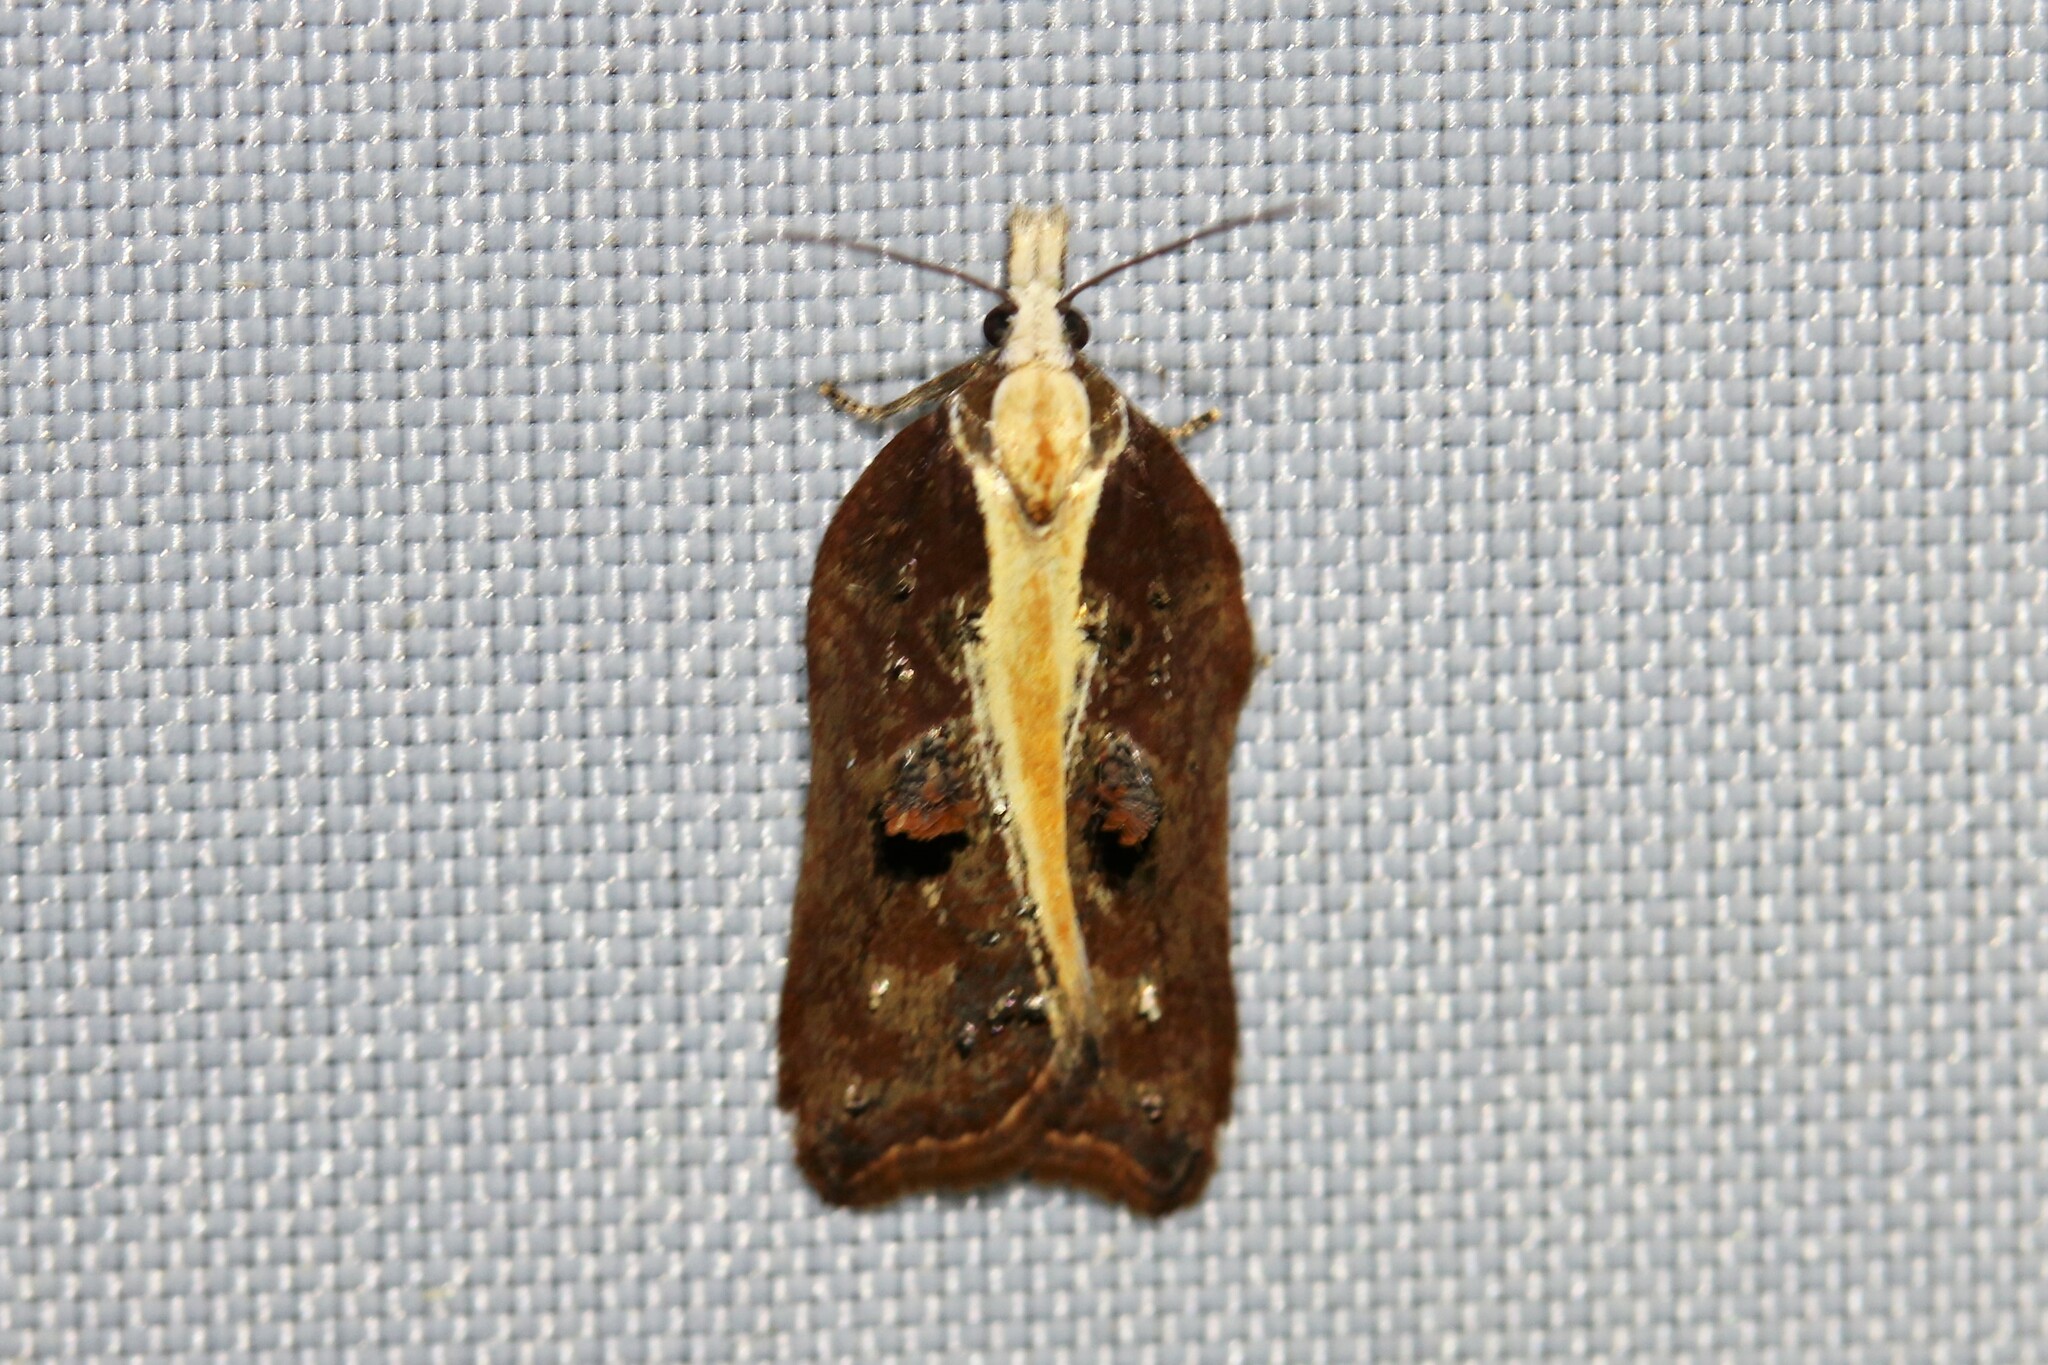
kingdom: Animalia
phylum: Arthropoda
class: Insecta
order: Lepidoptera
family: Tortricidae
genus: Acleris
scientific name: Acleris cristana
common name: Tufted button
